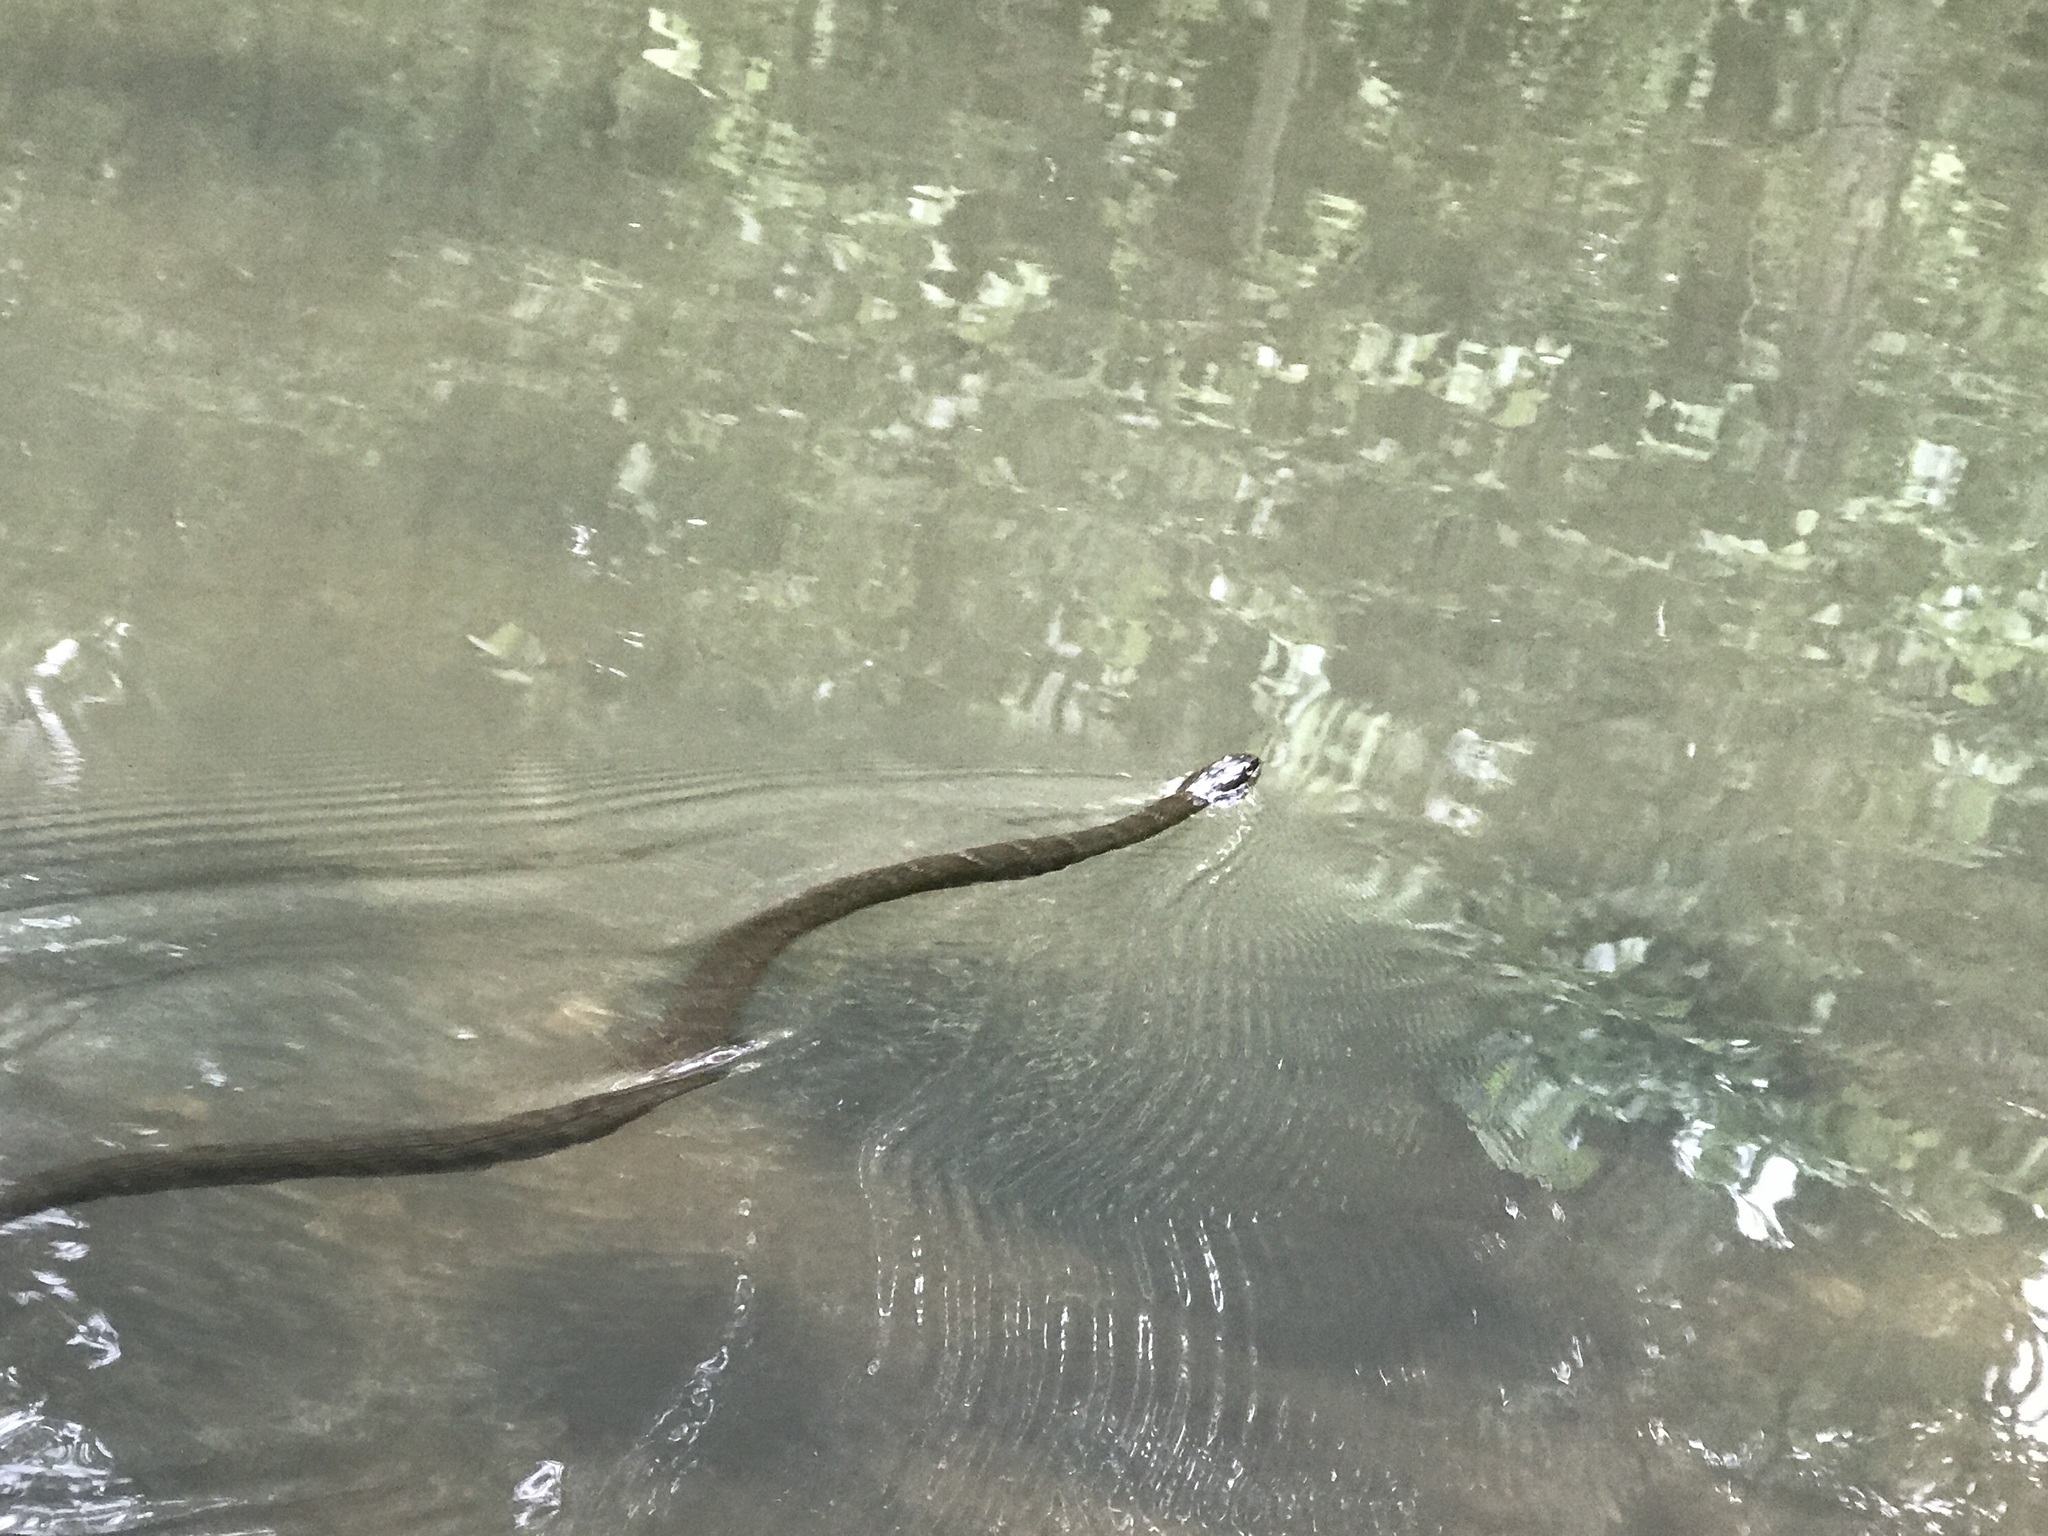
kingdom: Animalia
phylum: Chordata
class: Squamata
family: Colubridae
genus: Nerodia
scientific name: Nerodia sipedon
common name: Northern water snake
